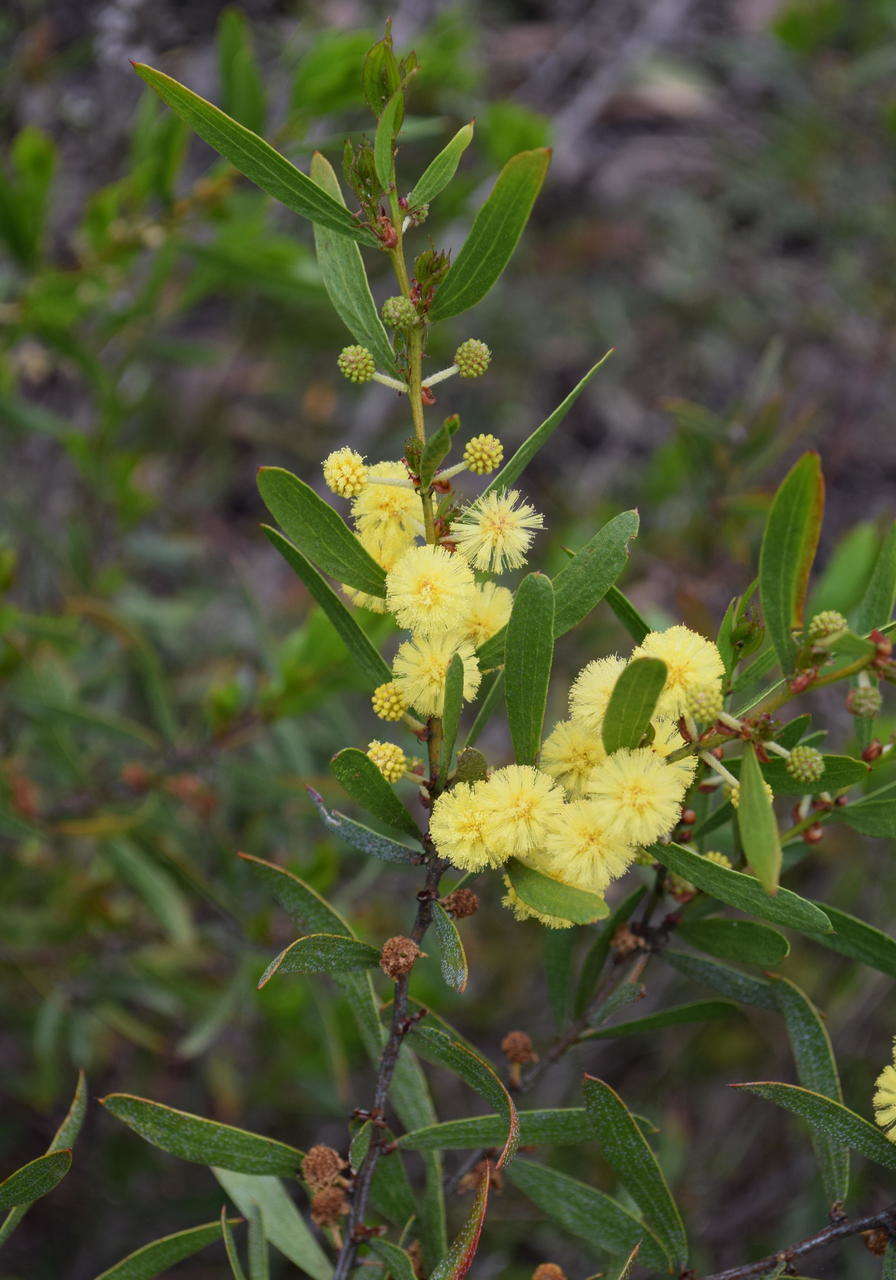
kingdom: Plantae
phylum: Tracheophyta
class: Magnoliopsida
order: Fabales
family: Fabaceae
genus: Acacia
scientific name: Acacia exudans
